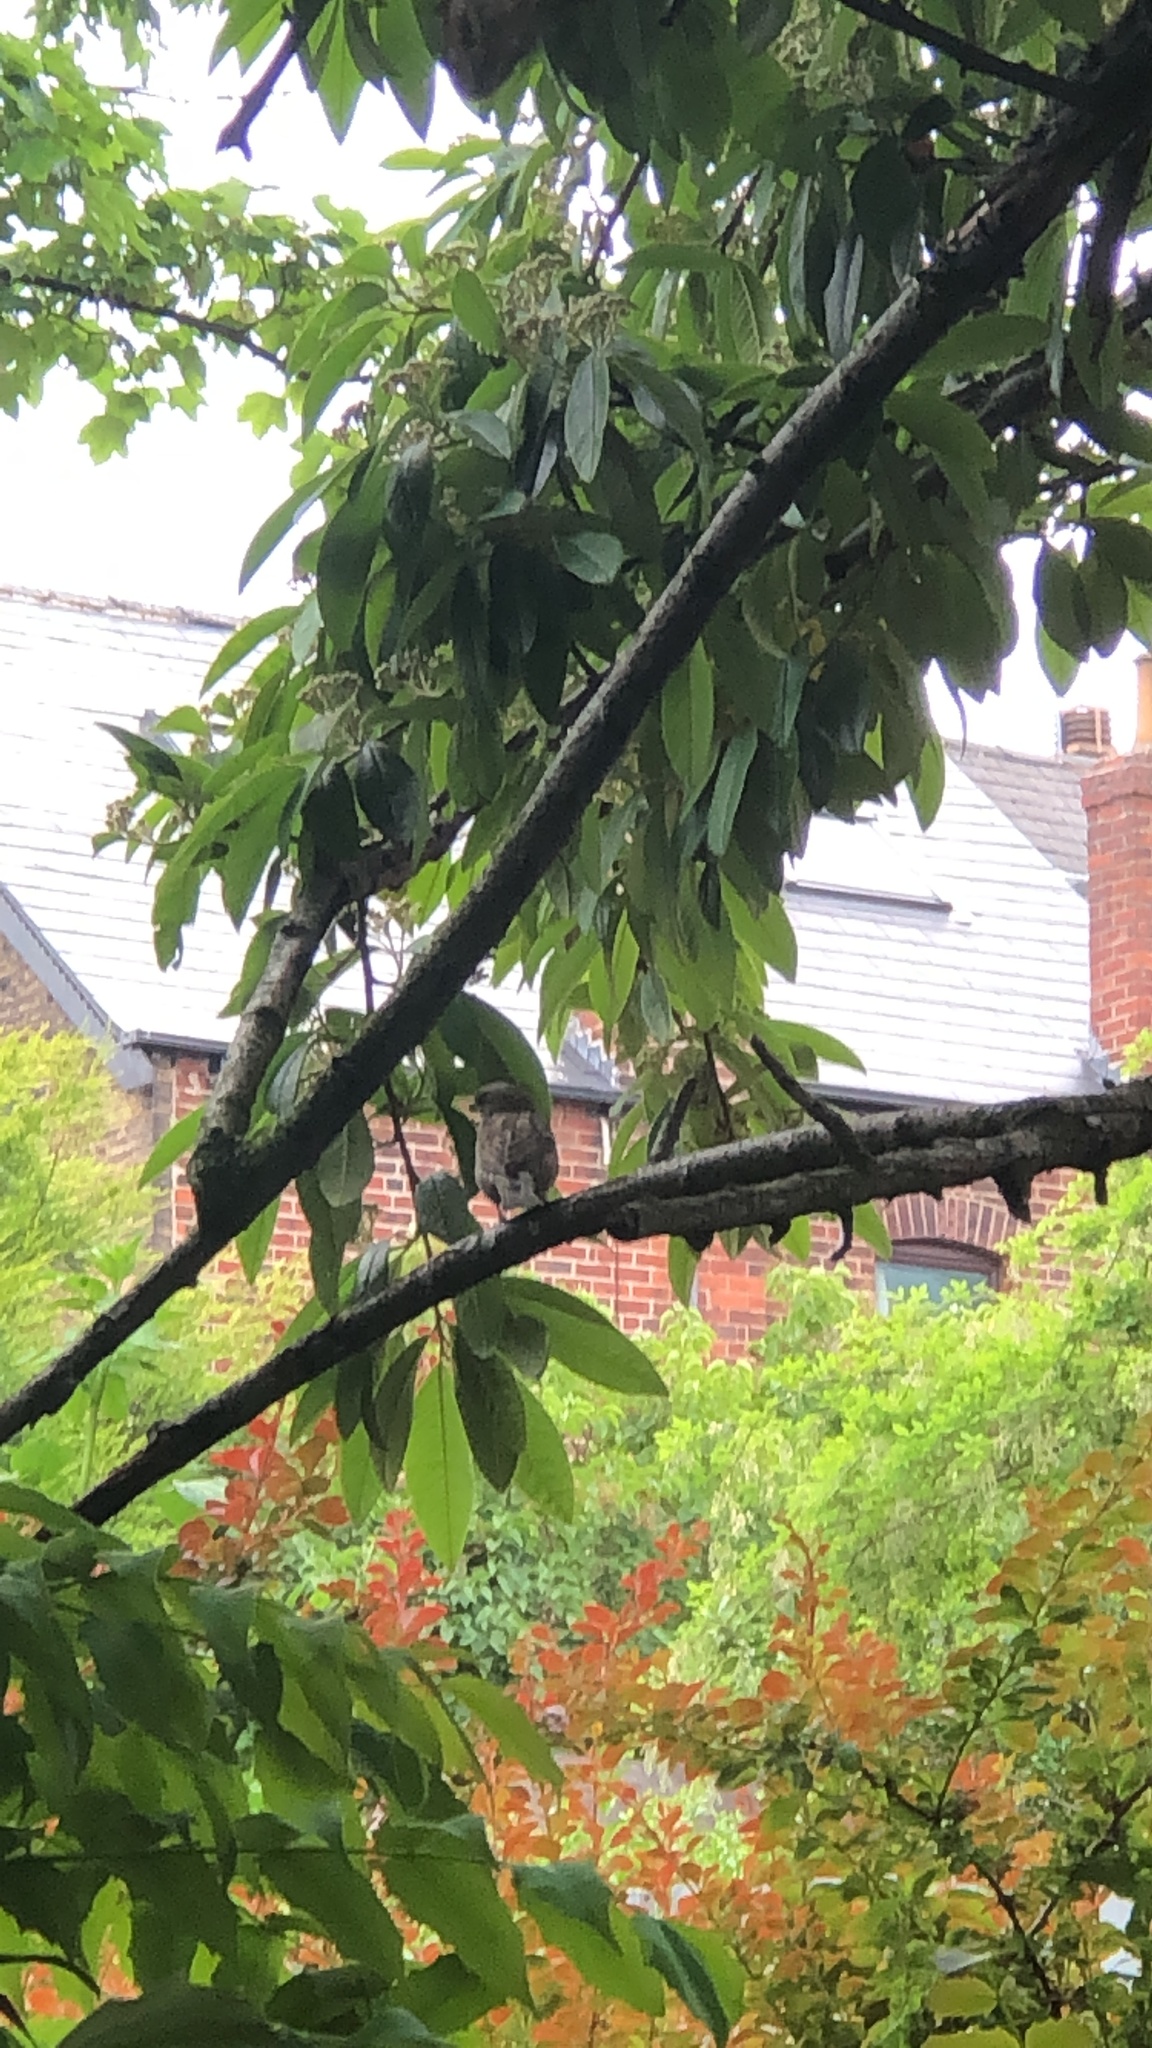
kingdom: Animalia
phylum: Chordata
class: Aves
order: Passeriformes
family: Passeridae
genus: Passer
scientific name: Passer domesticus
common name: House sparrow
